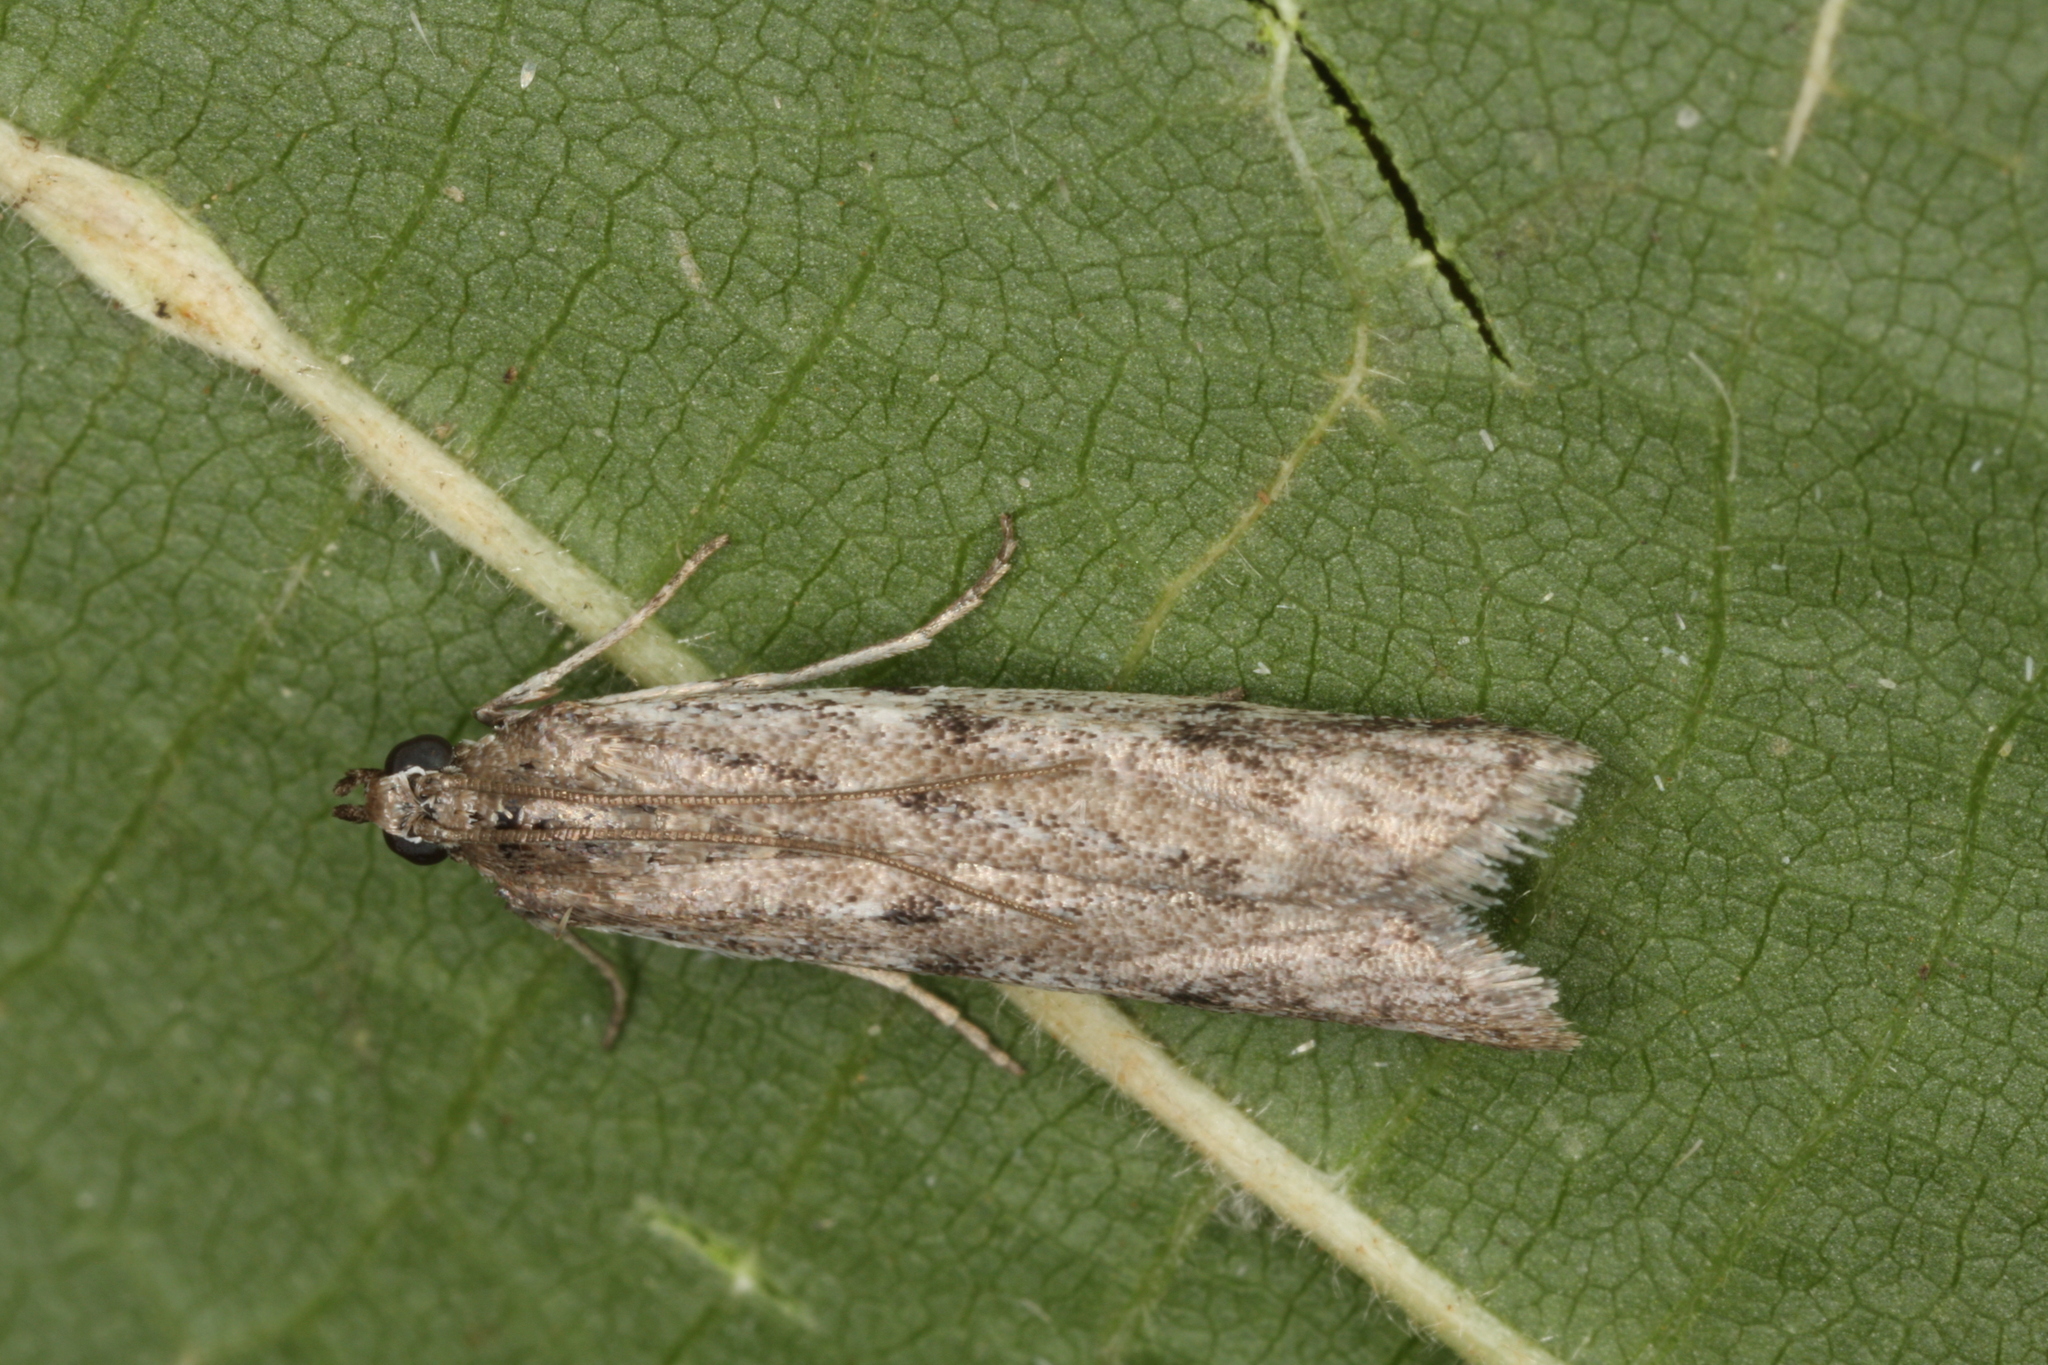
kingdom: Animalia
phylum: Arthropoda
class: Insecta
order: Lepidoptera
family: Pyralidae
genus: Phycitodes
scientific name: Phycitodes albatella
